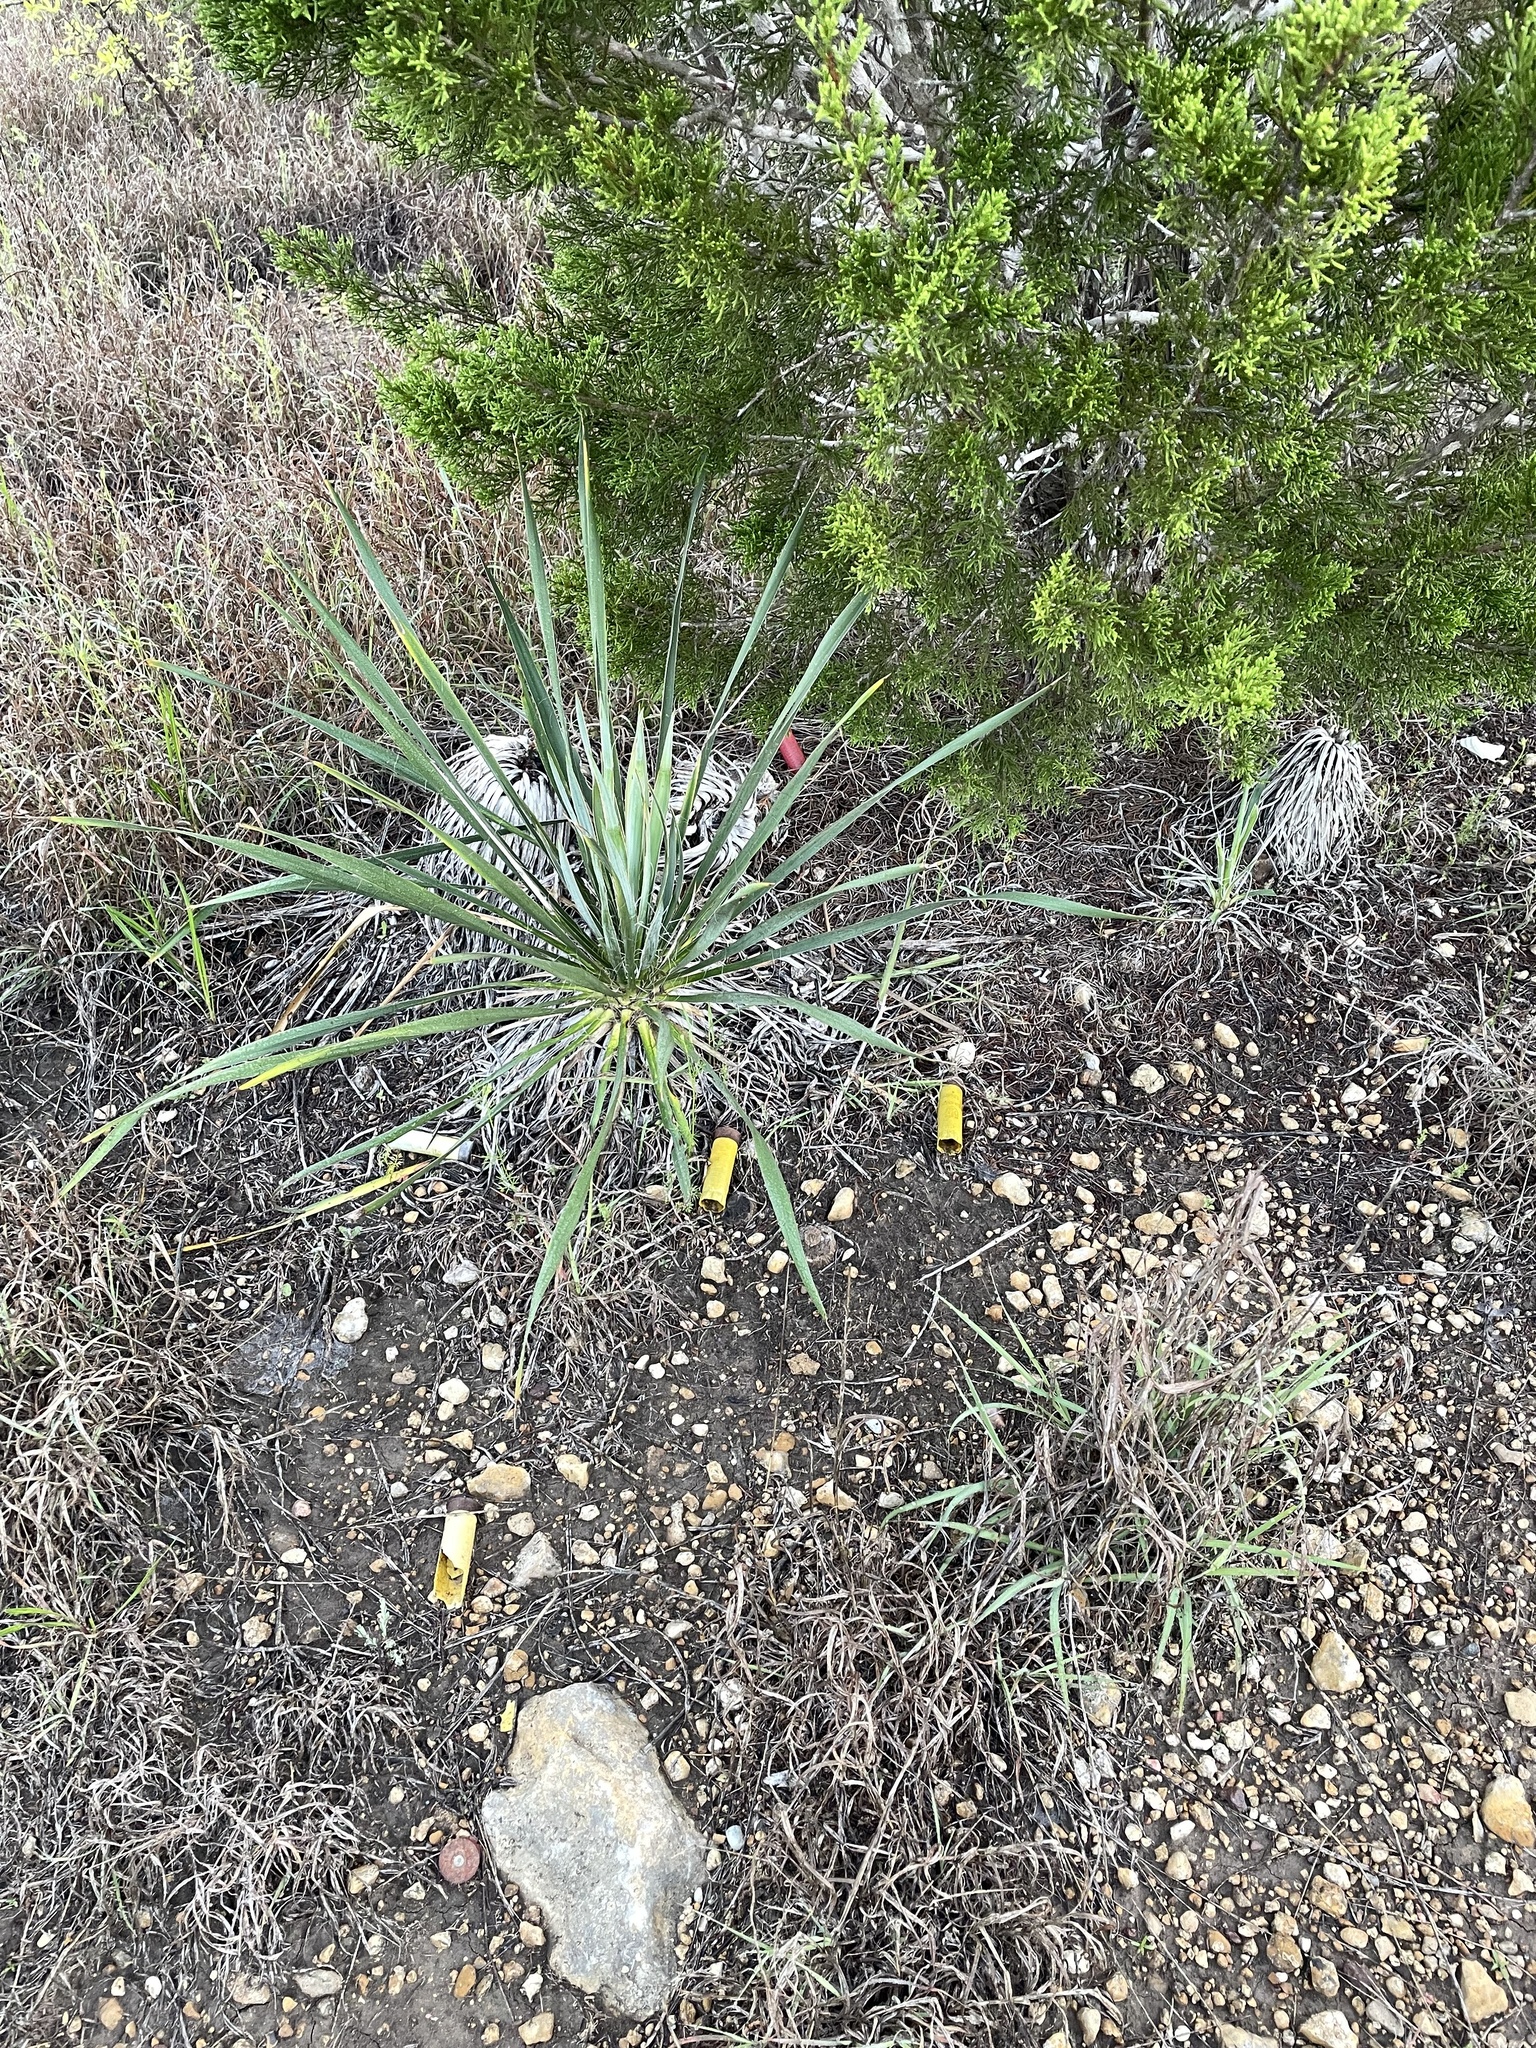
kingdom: Plantae
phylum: Tracheophyta
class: Liliopsida
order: Asparagales
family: Asparagaceae
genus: Yucca
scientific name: Yucca arkansana
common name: Arkansas yucca
